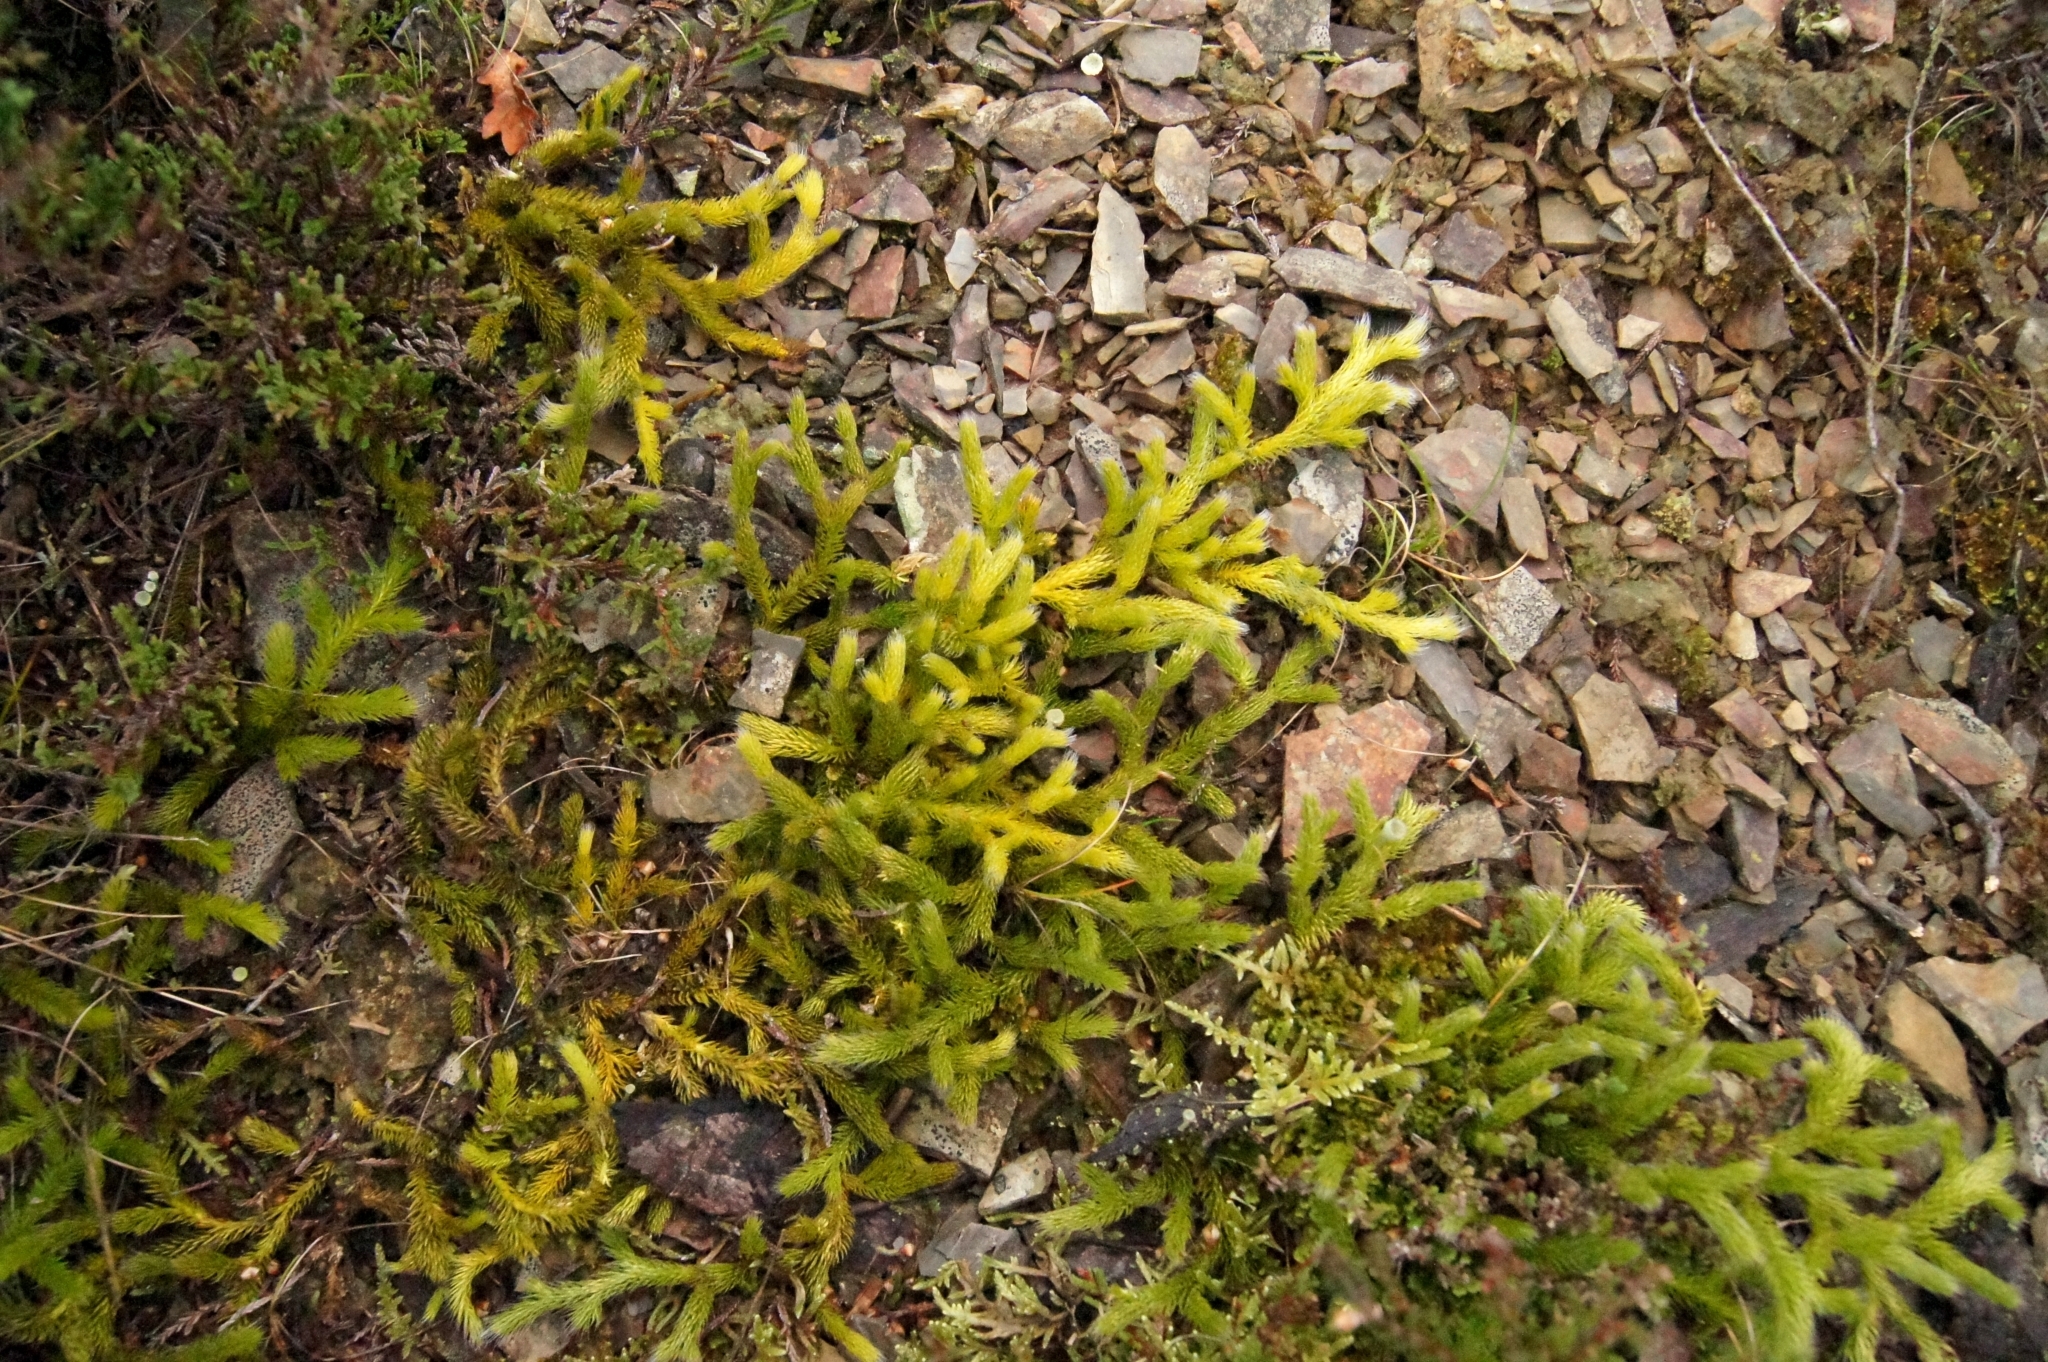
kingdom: Plantae
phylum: Tracheophyta
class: Lycopodiopsida
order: Lycopodiales
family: Lycopodiaceae
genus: Lycopodium
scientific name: Lycopodium clavatum
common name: Stag's-horn clubmoss
